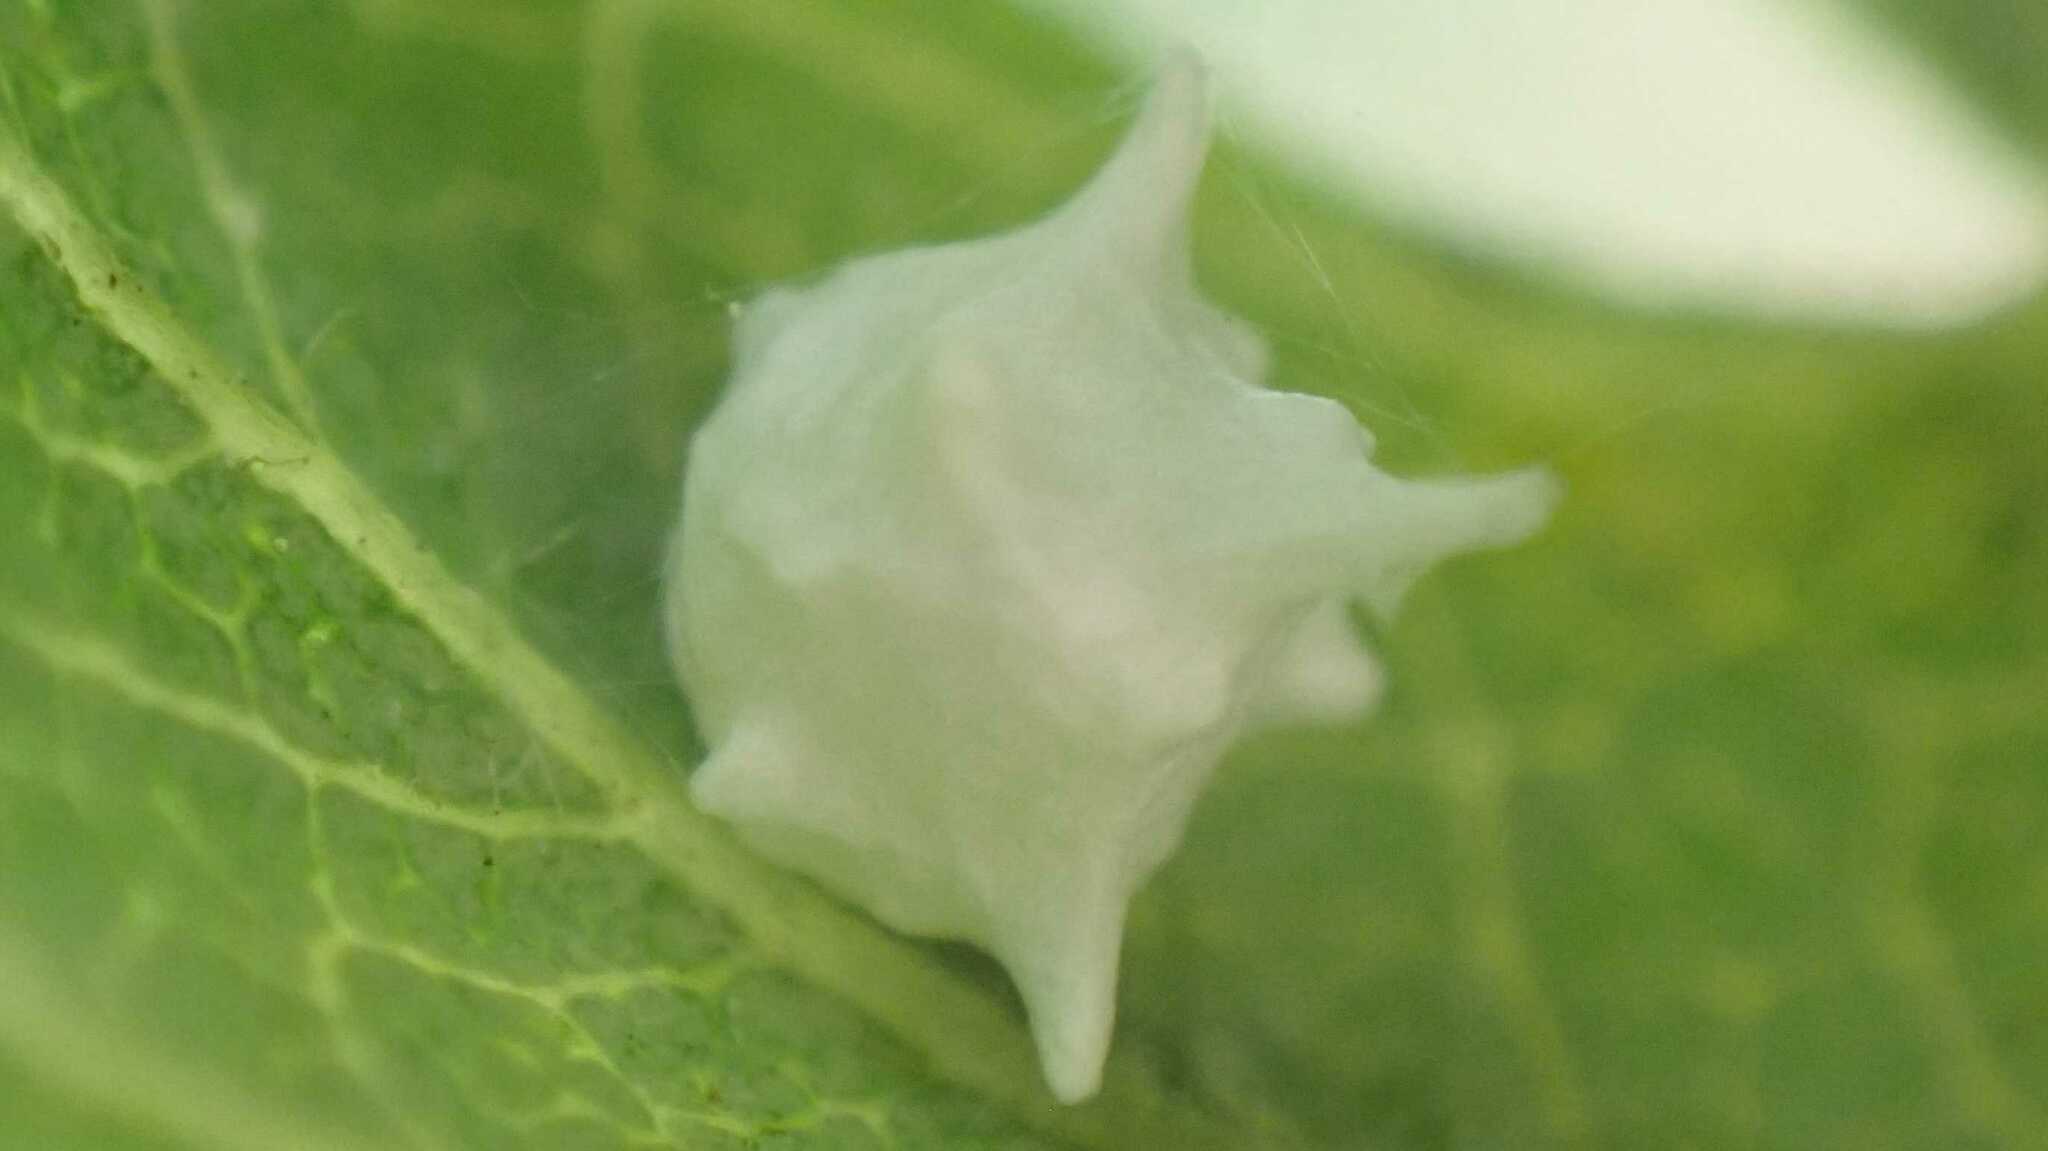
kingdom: Animalia
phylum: Arthropoda
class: Arachnida
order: Araneae
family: Theridiidae
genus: Paidiscura
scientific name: Paidiscura pallens
